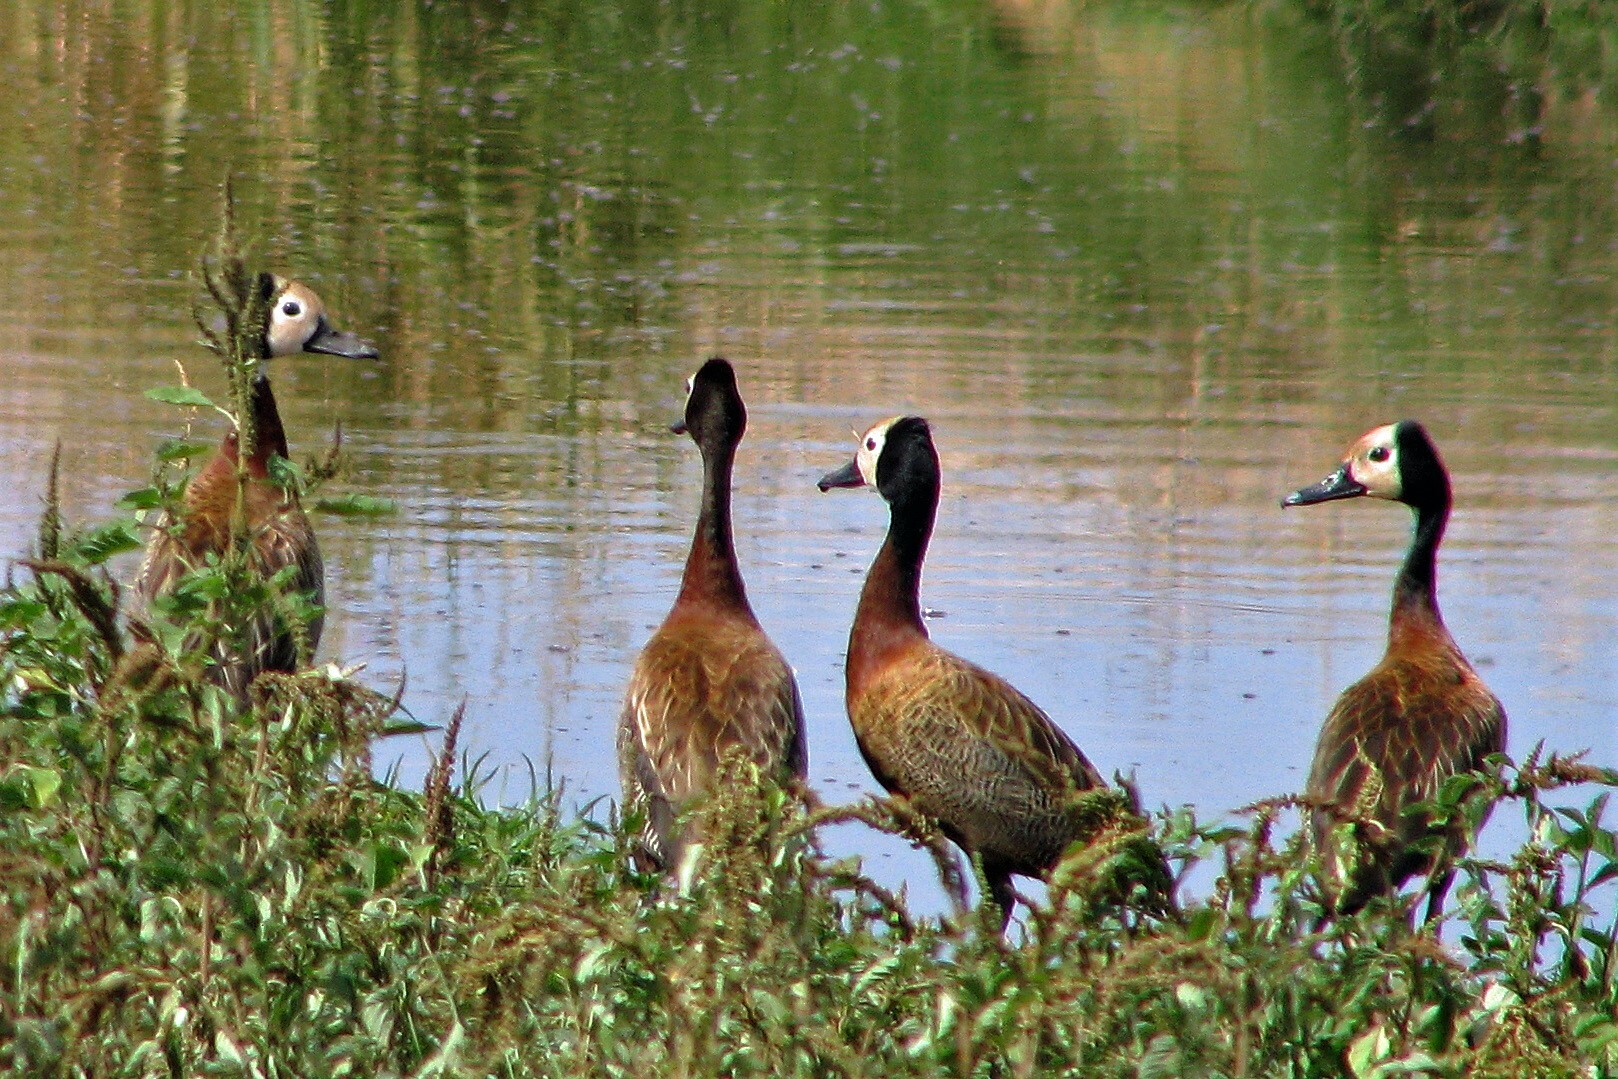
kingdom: Animalia
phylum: Chordata
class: Aves
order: Anseriformes
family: Anatidae
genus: Dendrocygna
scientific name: Dendrocygna viduata
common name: White-faced whistling duck
